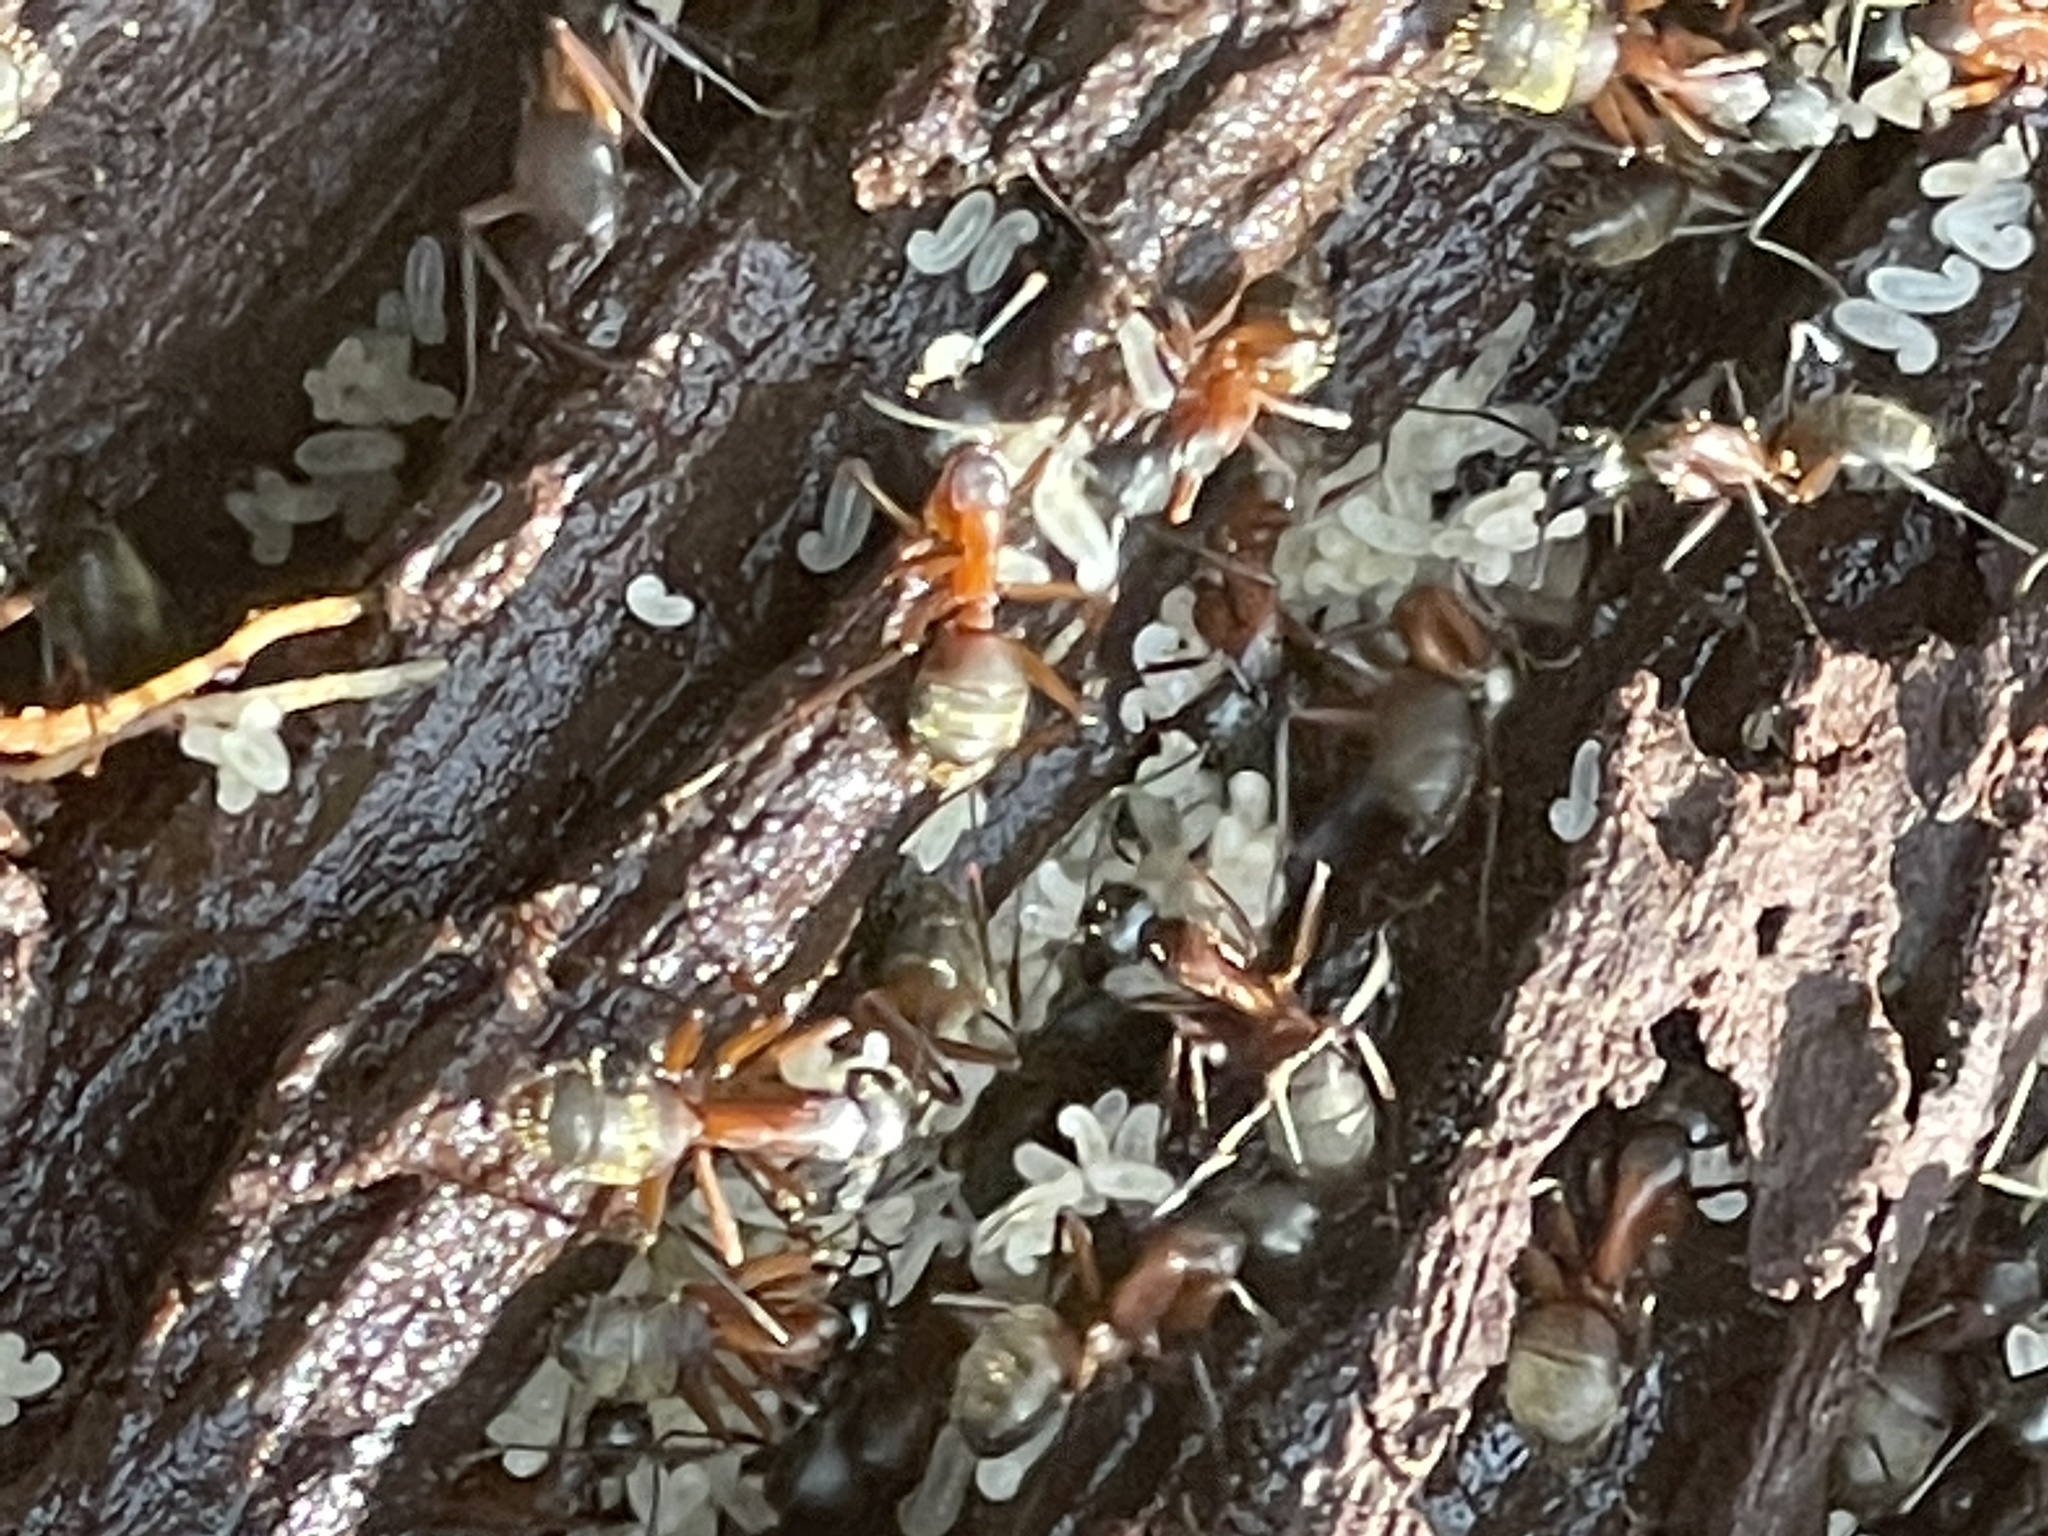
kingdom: Animalia
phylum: Arthropoda
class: Insecta
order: Hymenoptera
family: Formicidae
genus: Camponotus
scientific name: Camponotus chromaiodes
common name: Red carpenter ant
